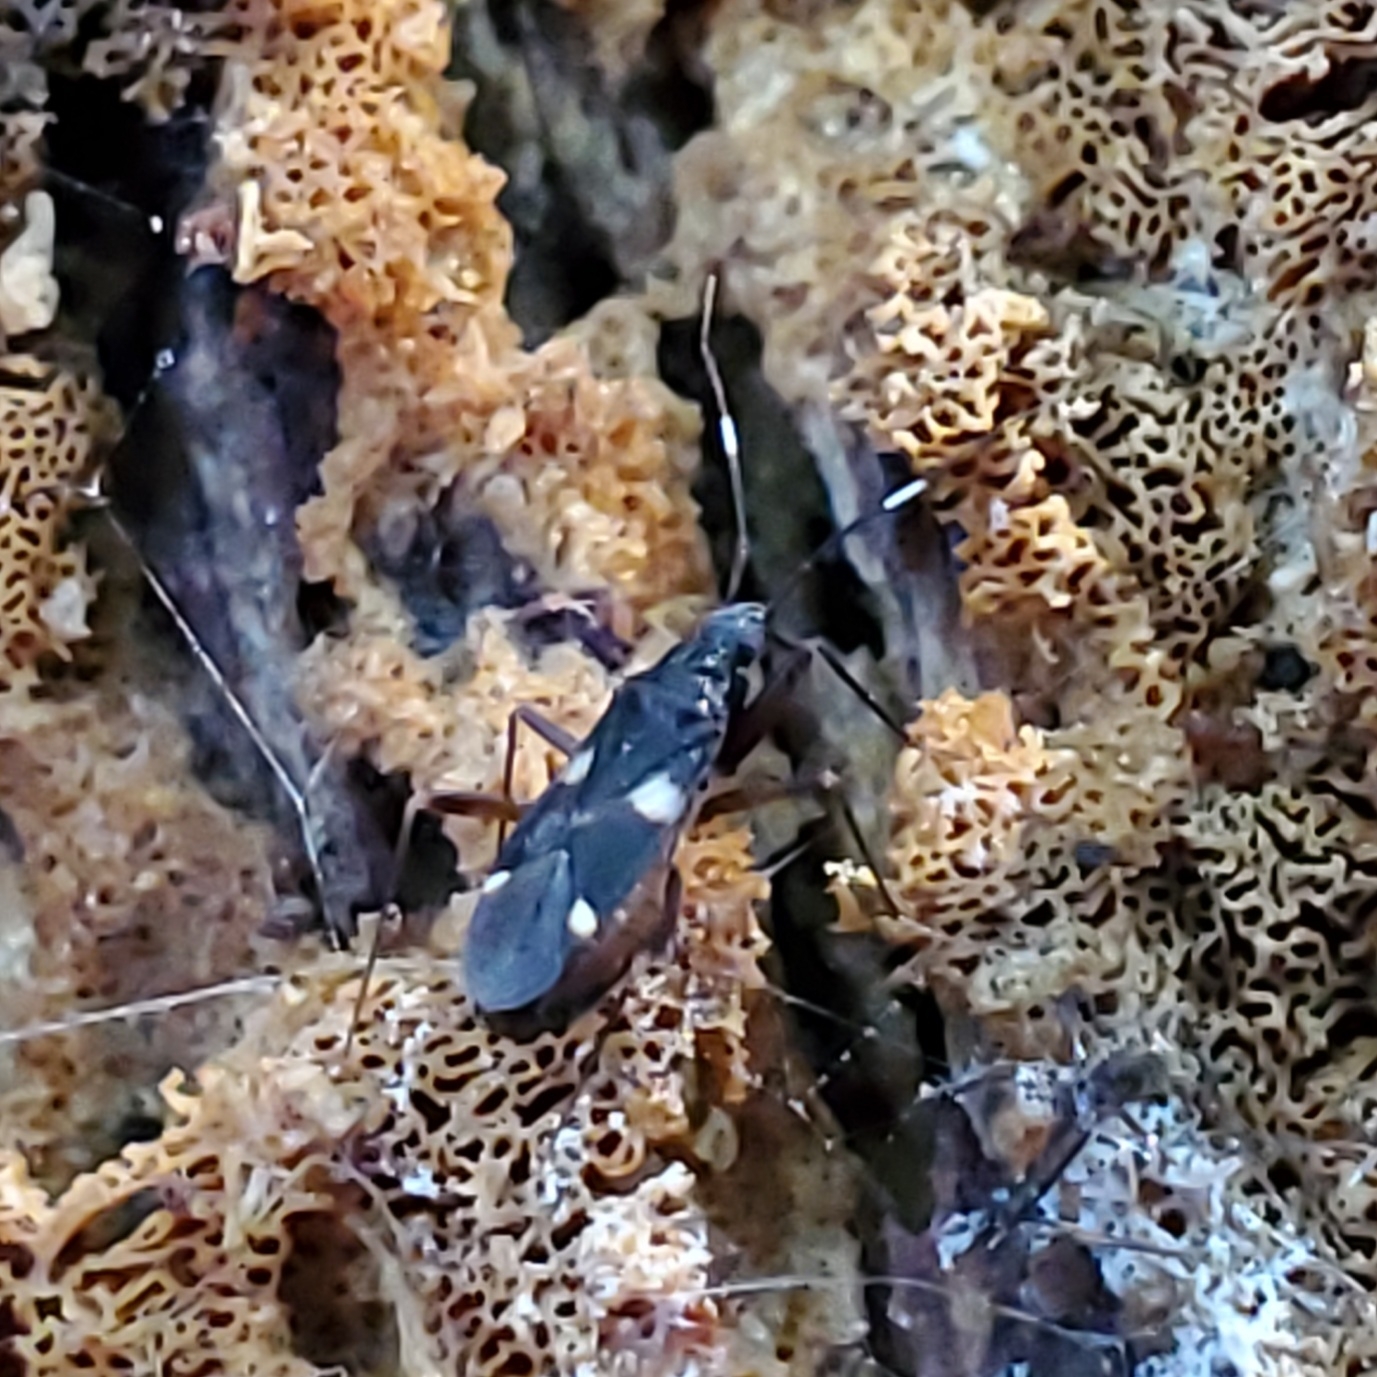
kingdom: Animalia
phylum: Arthropoda
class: Insecta
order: Hemiptera
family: Miridae
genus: Fulvius
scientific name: Fulvius imbecilis
